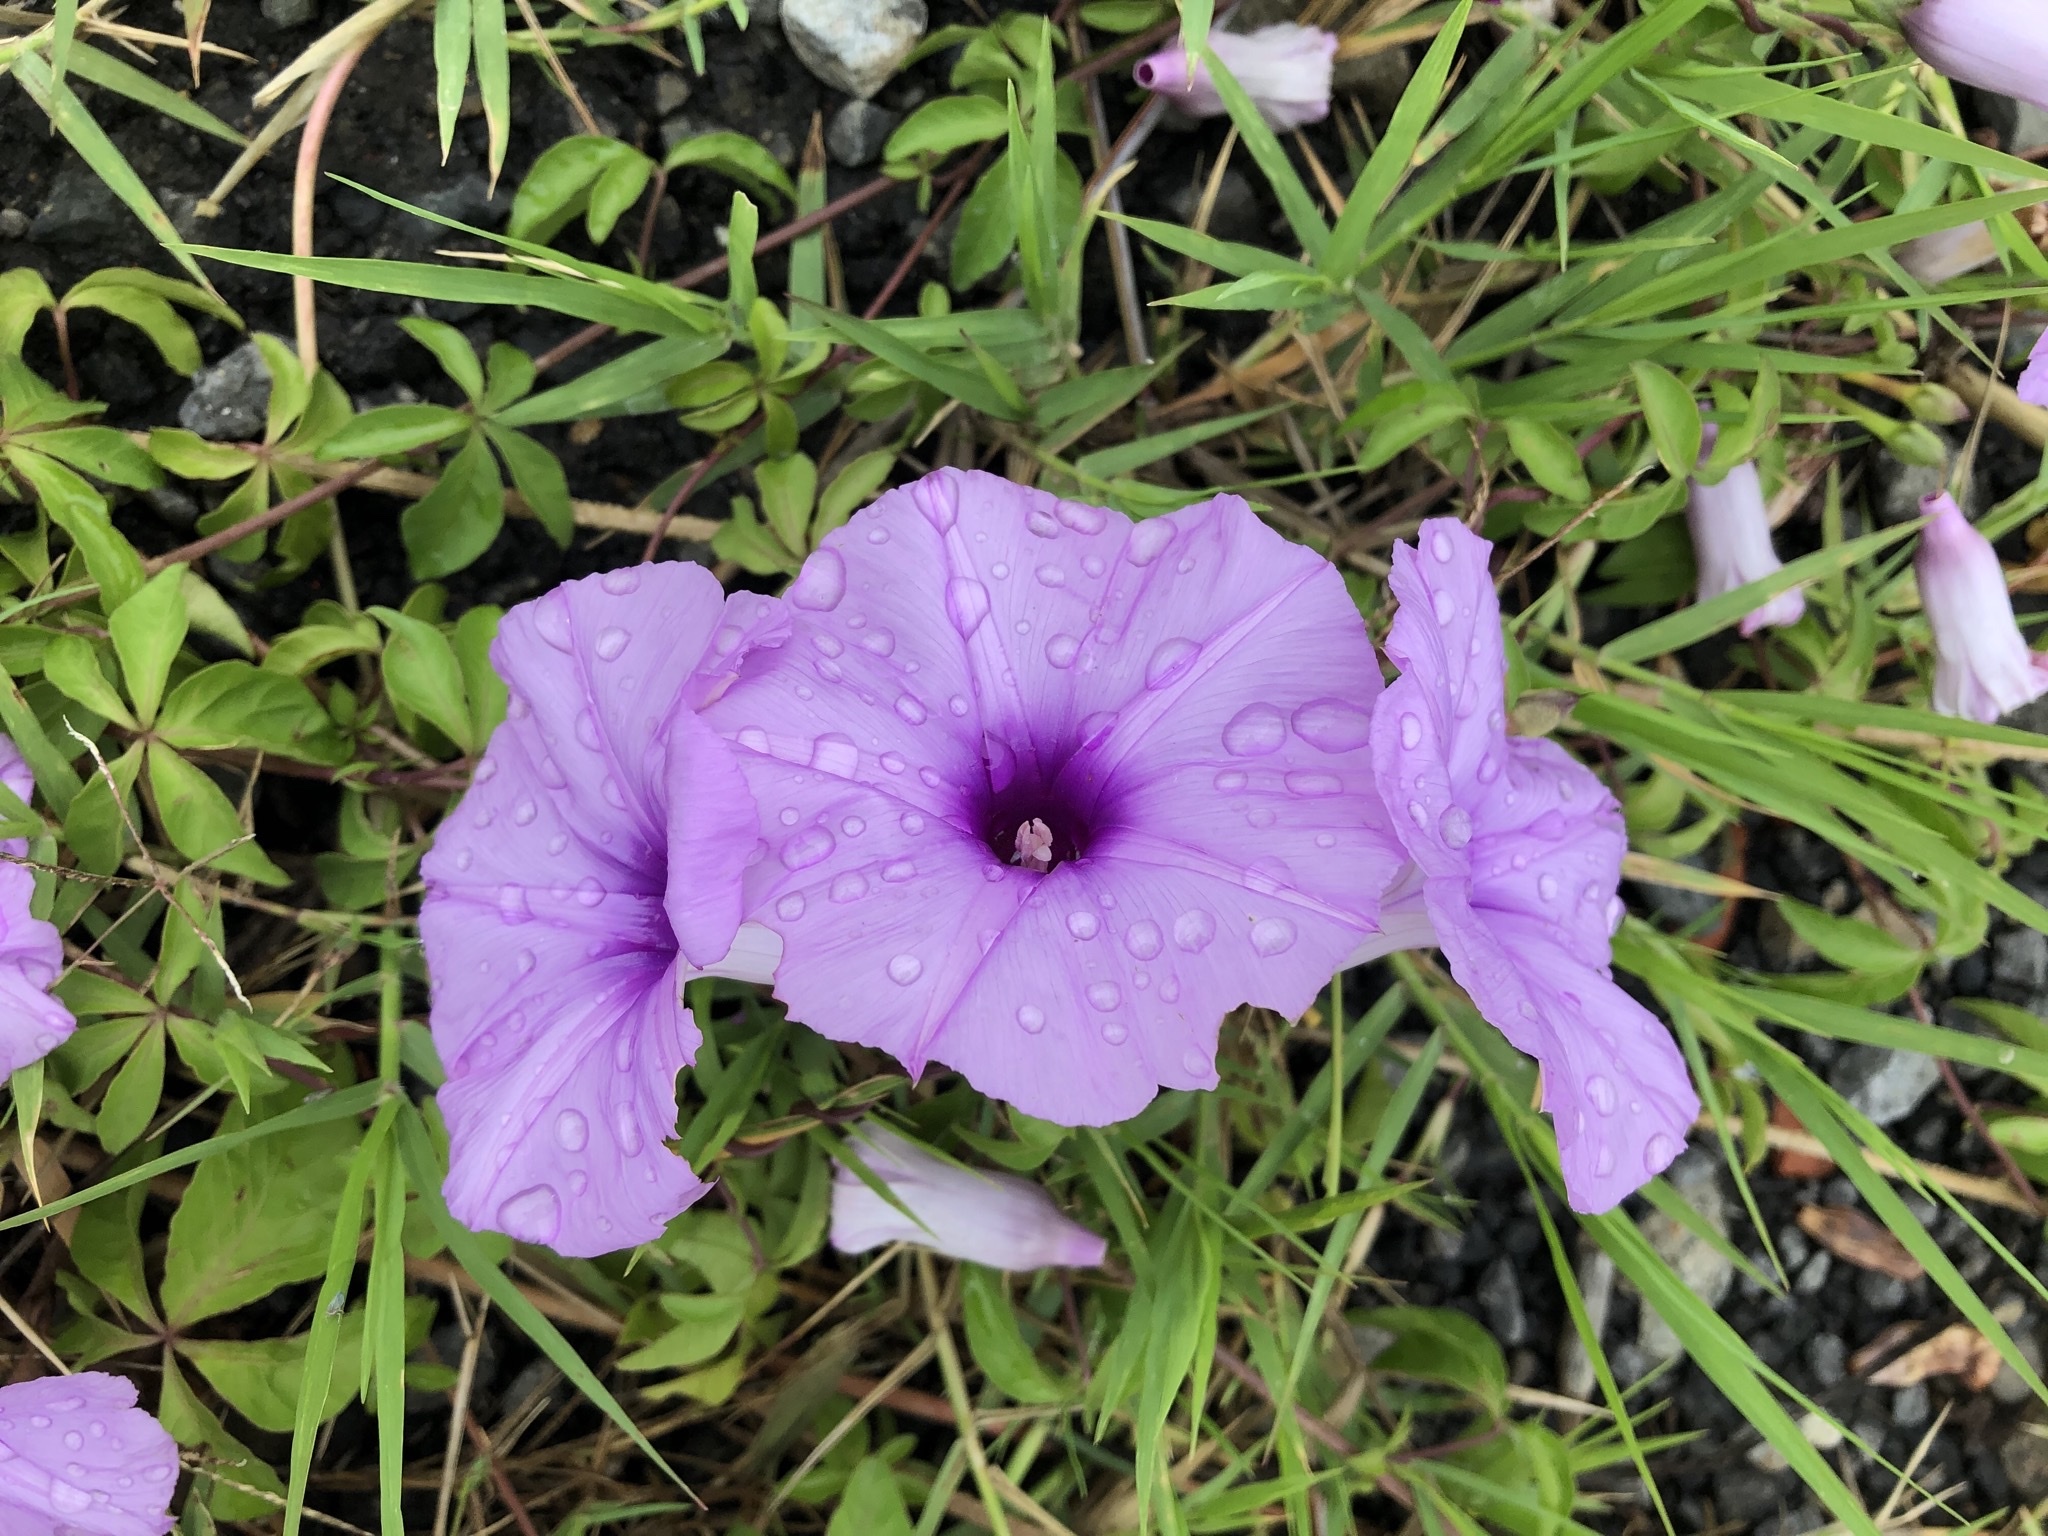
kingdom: Plantae
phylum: Tracheophyta
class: Magnoliopsida
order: Solanales
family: Convolvulaceae
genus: Ipomoea
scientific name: Ipomoea cairica
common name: Mile a minute vine
